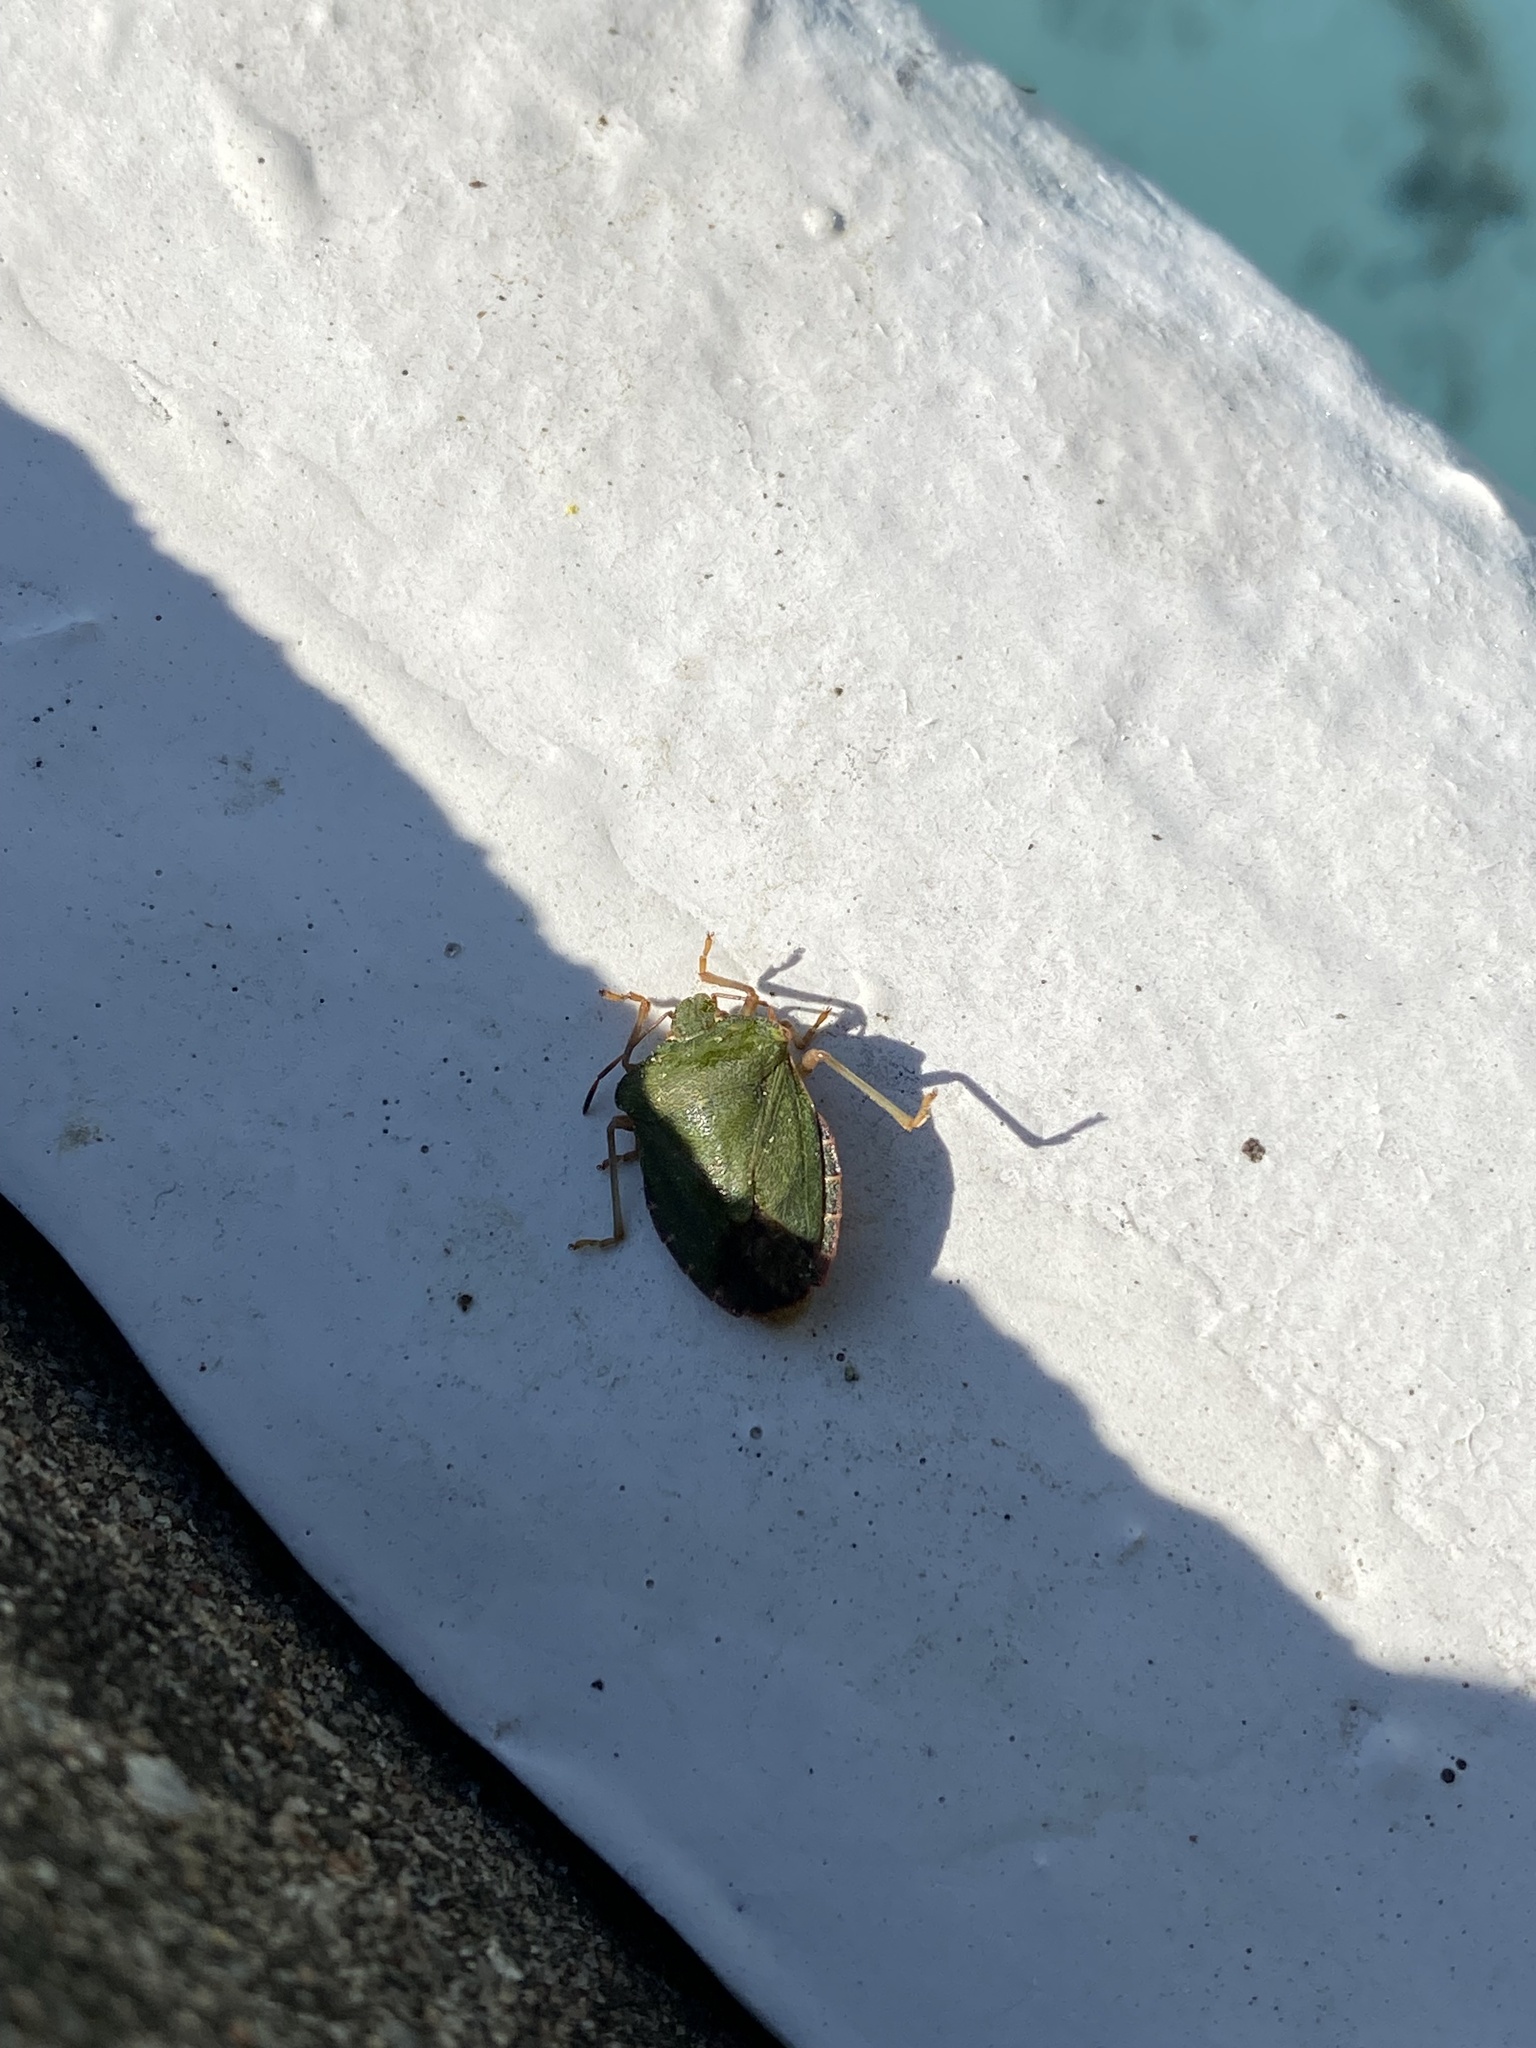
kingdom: Animalia
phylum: Arthropoda
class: Insecta
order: Hemiptera
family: Pentatomidae
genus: Palomena
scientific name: Palomena prasina
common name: Green shieldbug
